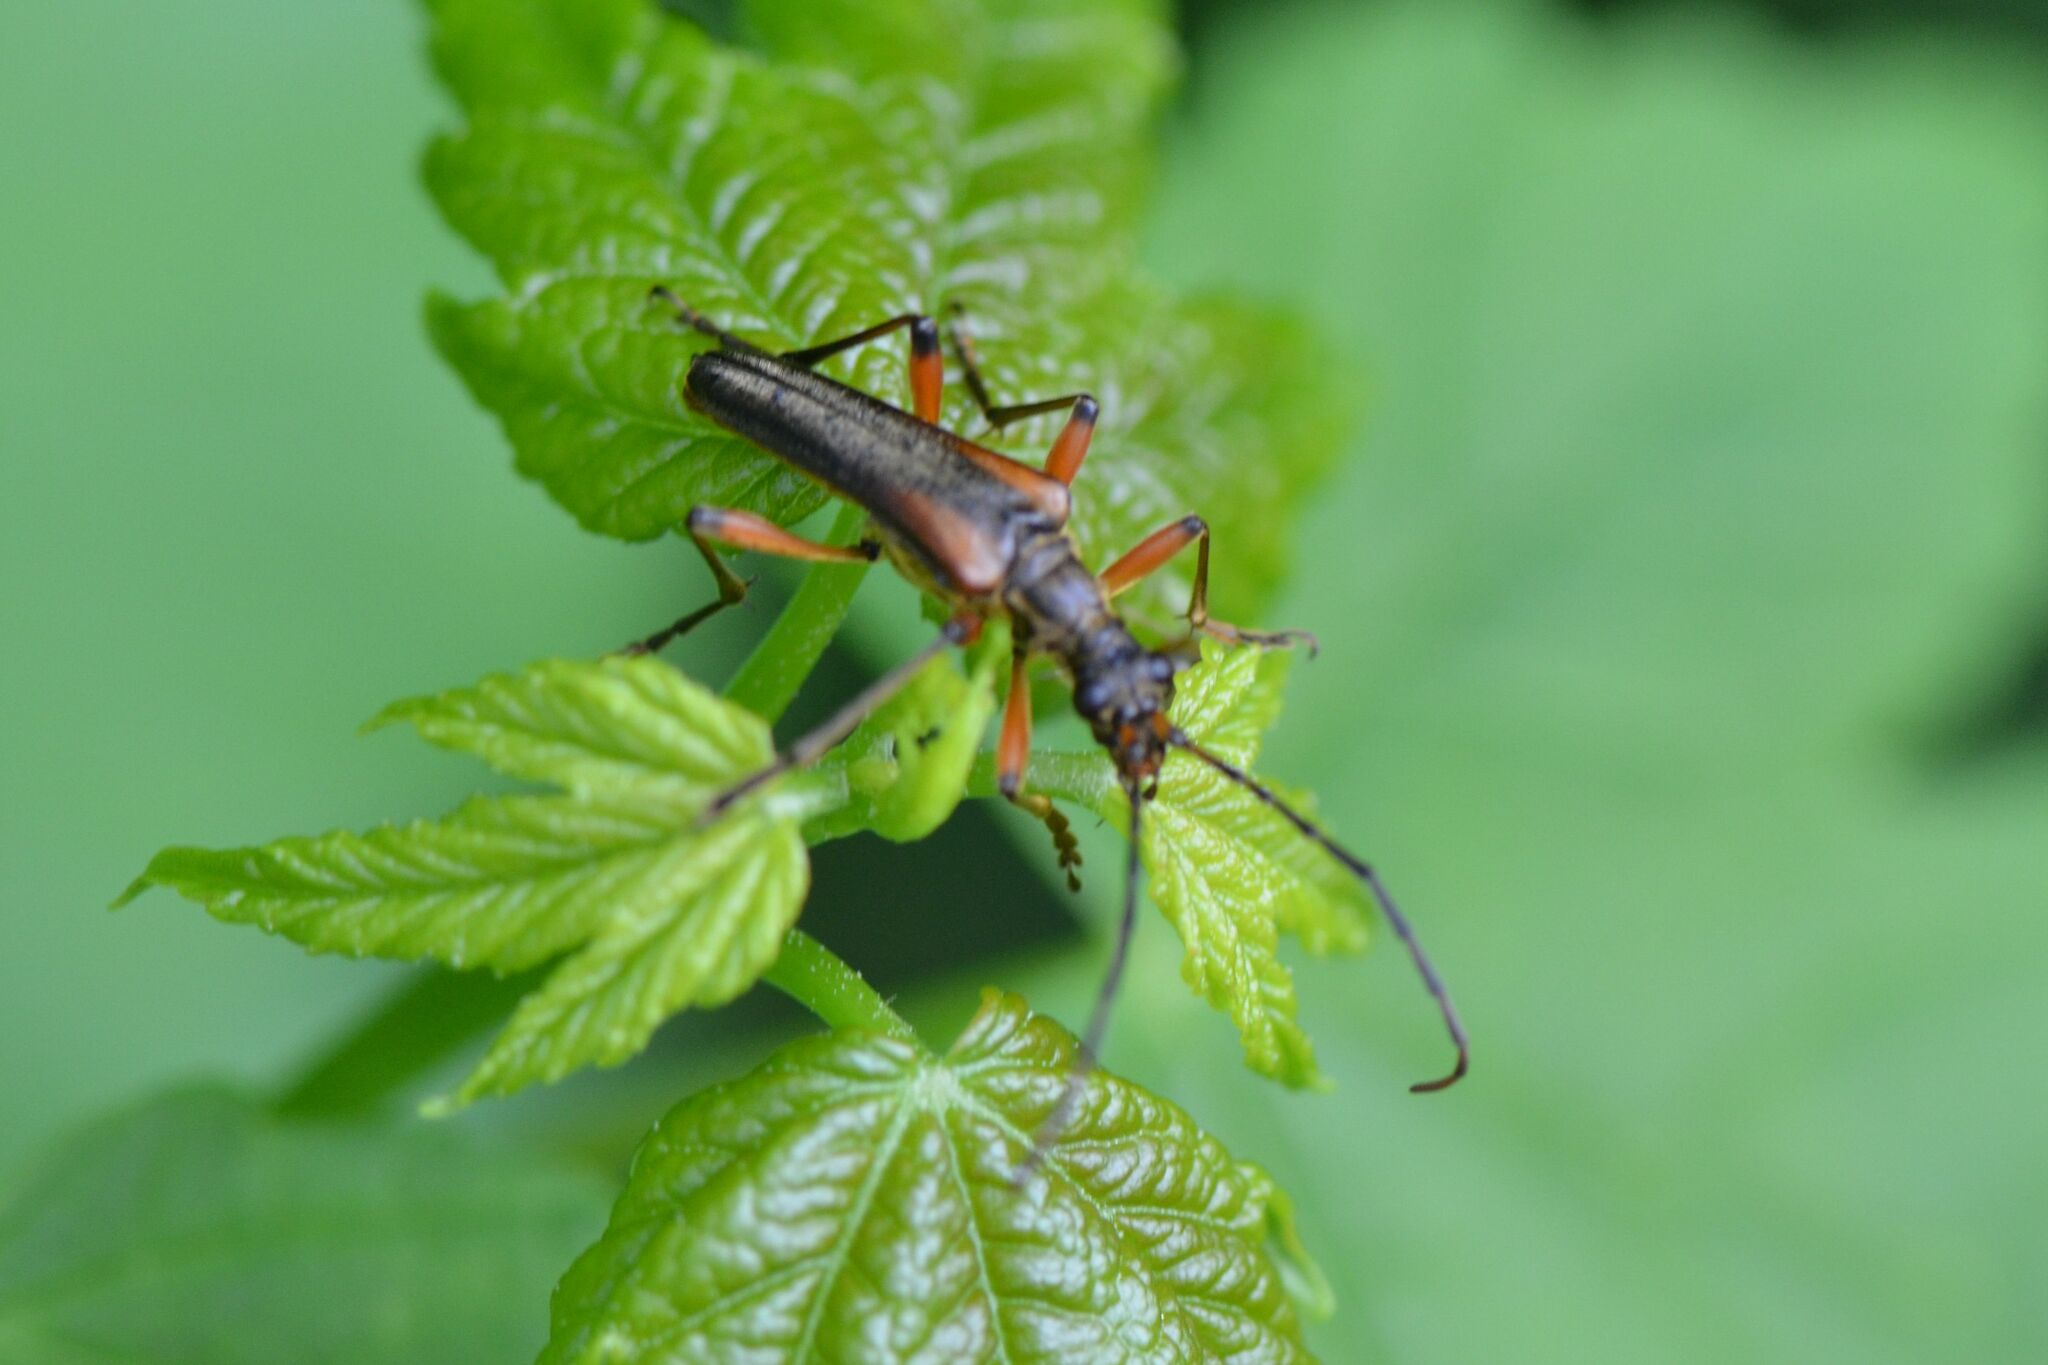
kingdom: Animalia
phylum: Arthropoda
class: Insecta
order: Coleoptera
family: Cerambycidae
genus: Stenocorus
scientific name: Stenocorus meridianus
